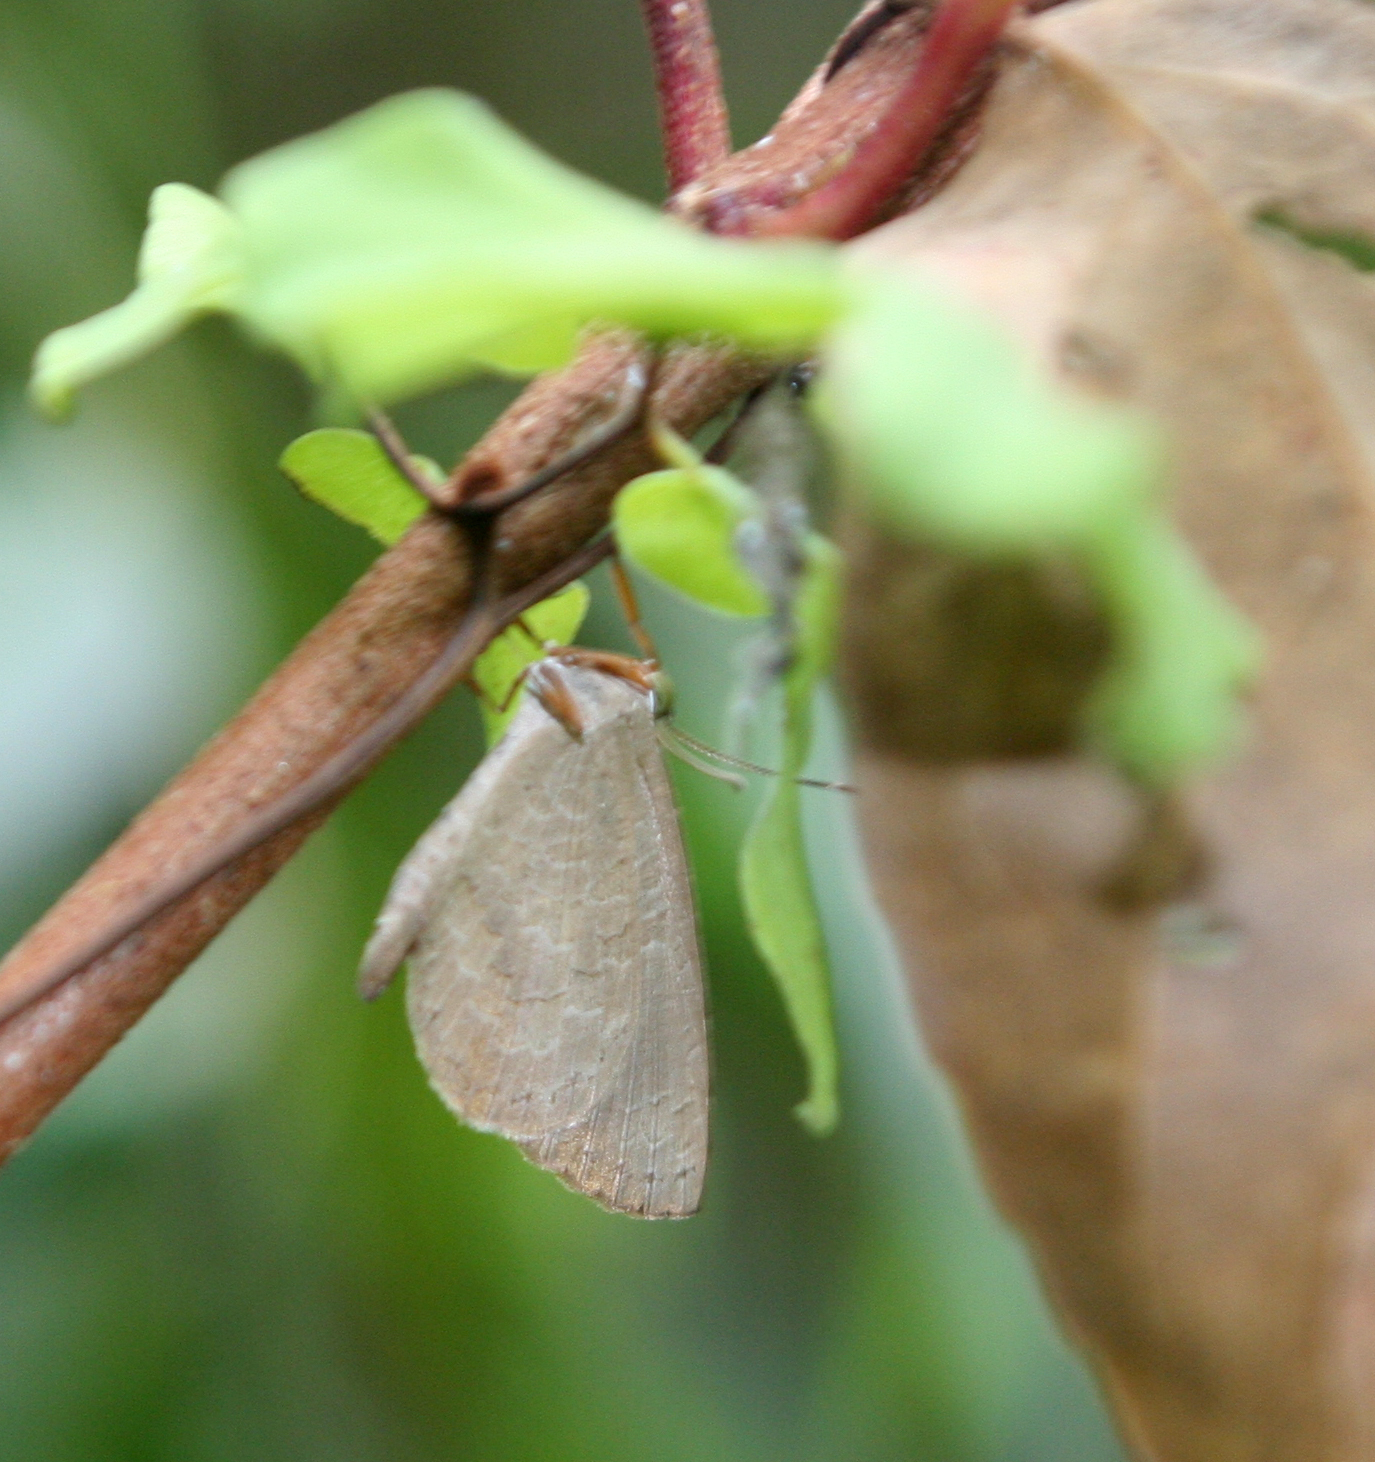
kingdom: Animalia
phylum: Arthropoda
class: Insecta
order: Lepidoptera
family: Lycaenidae
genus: Miletus
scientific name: Miletus chinensis
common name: Common brownie
